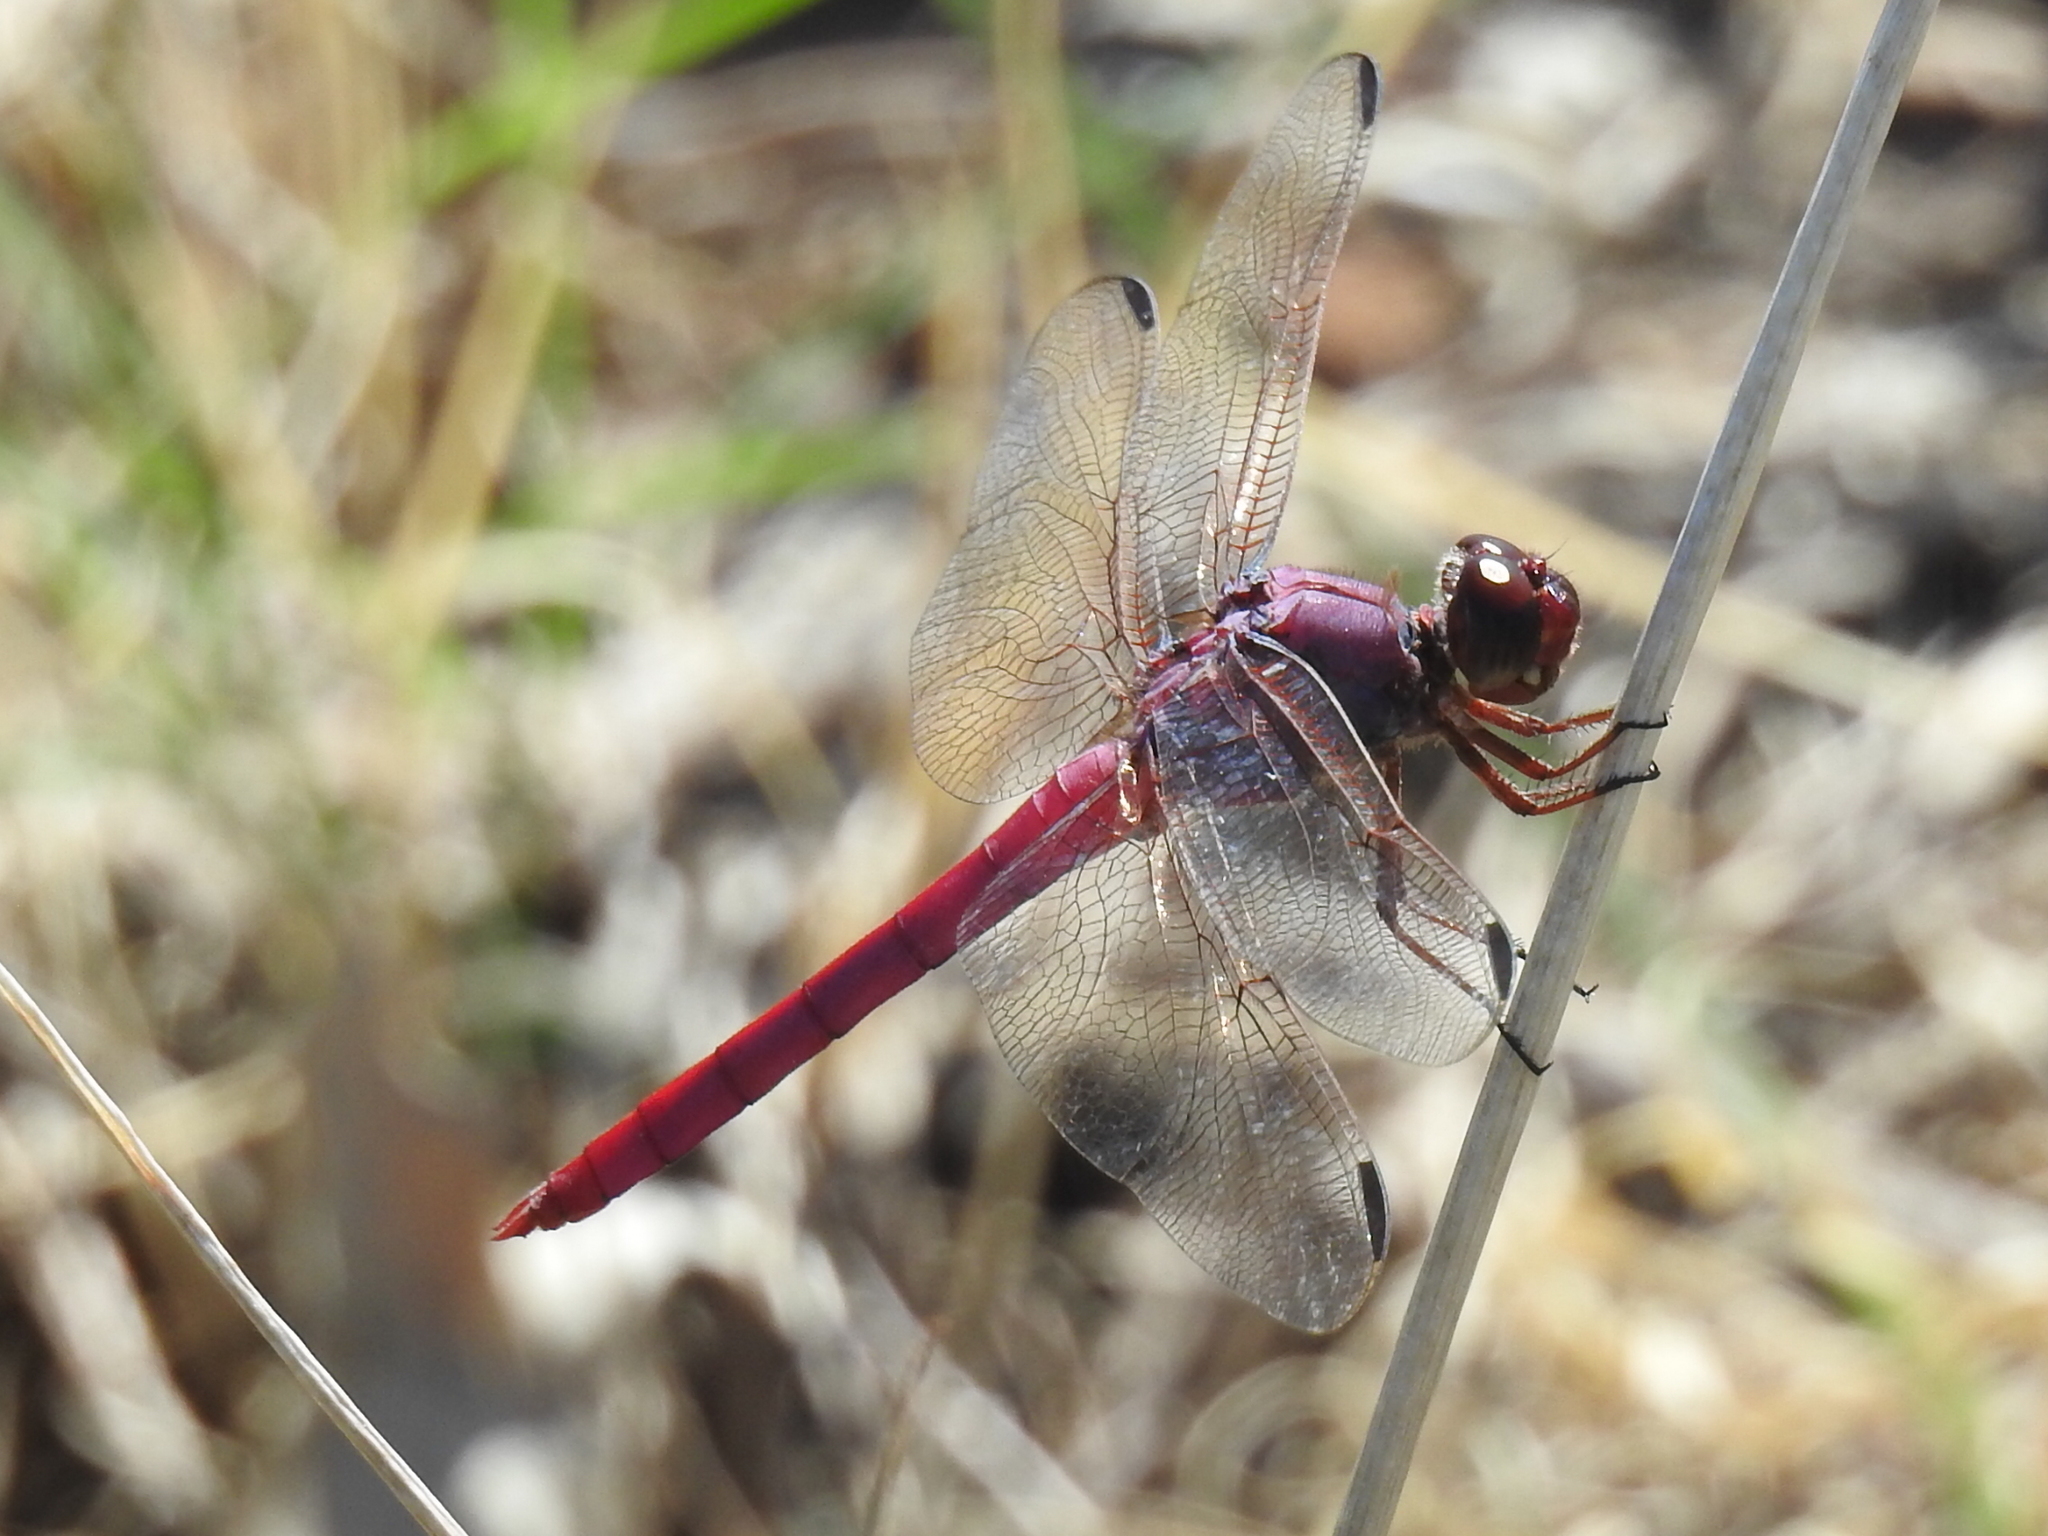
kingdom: Animalia
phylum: Arthropoda
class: Insecta
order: Odonata
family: Libellulidae
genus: Orthemis
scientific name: Orthemis ferruginea
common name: Roseate skimmer
